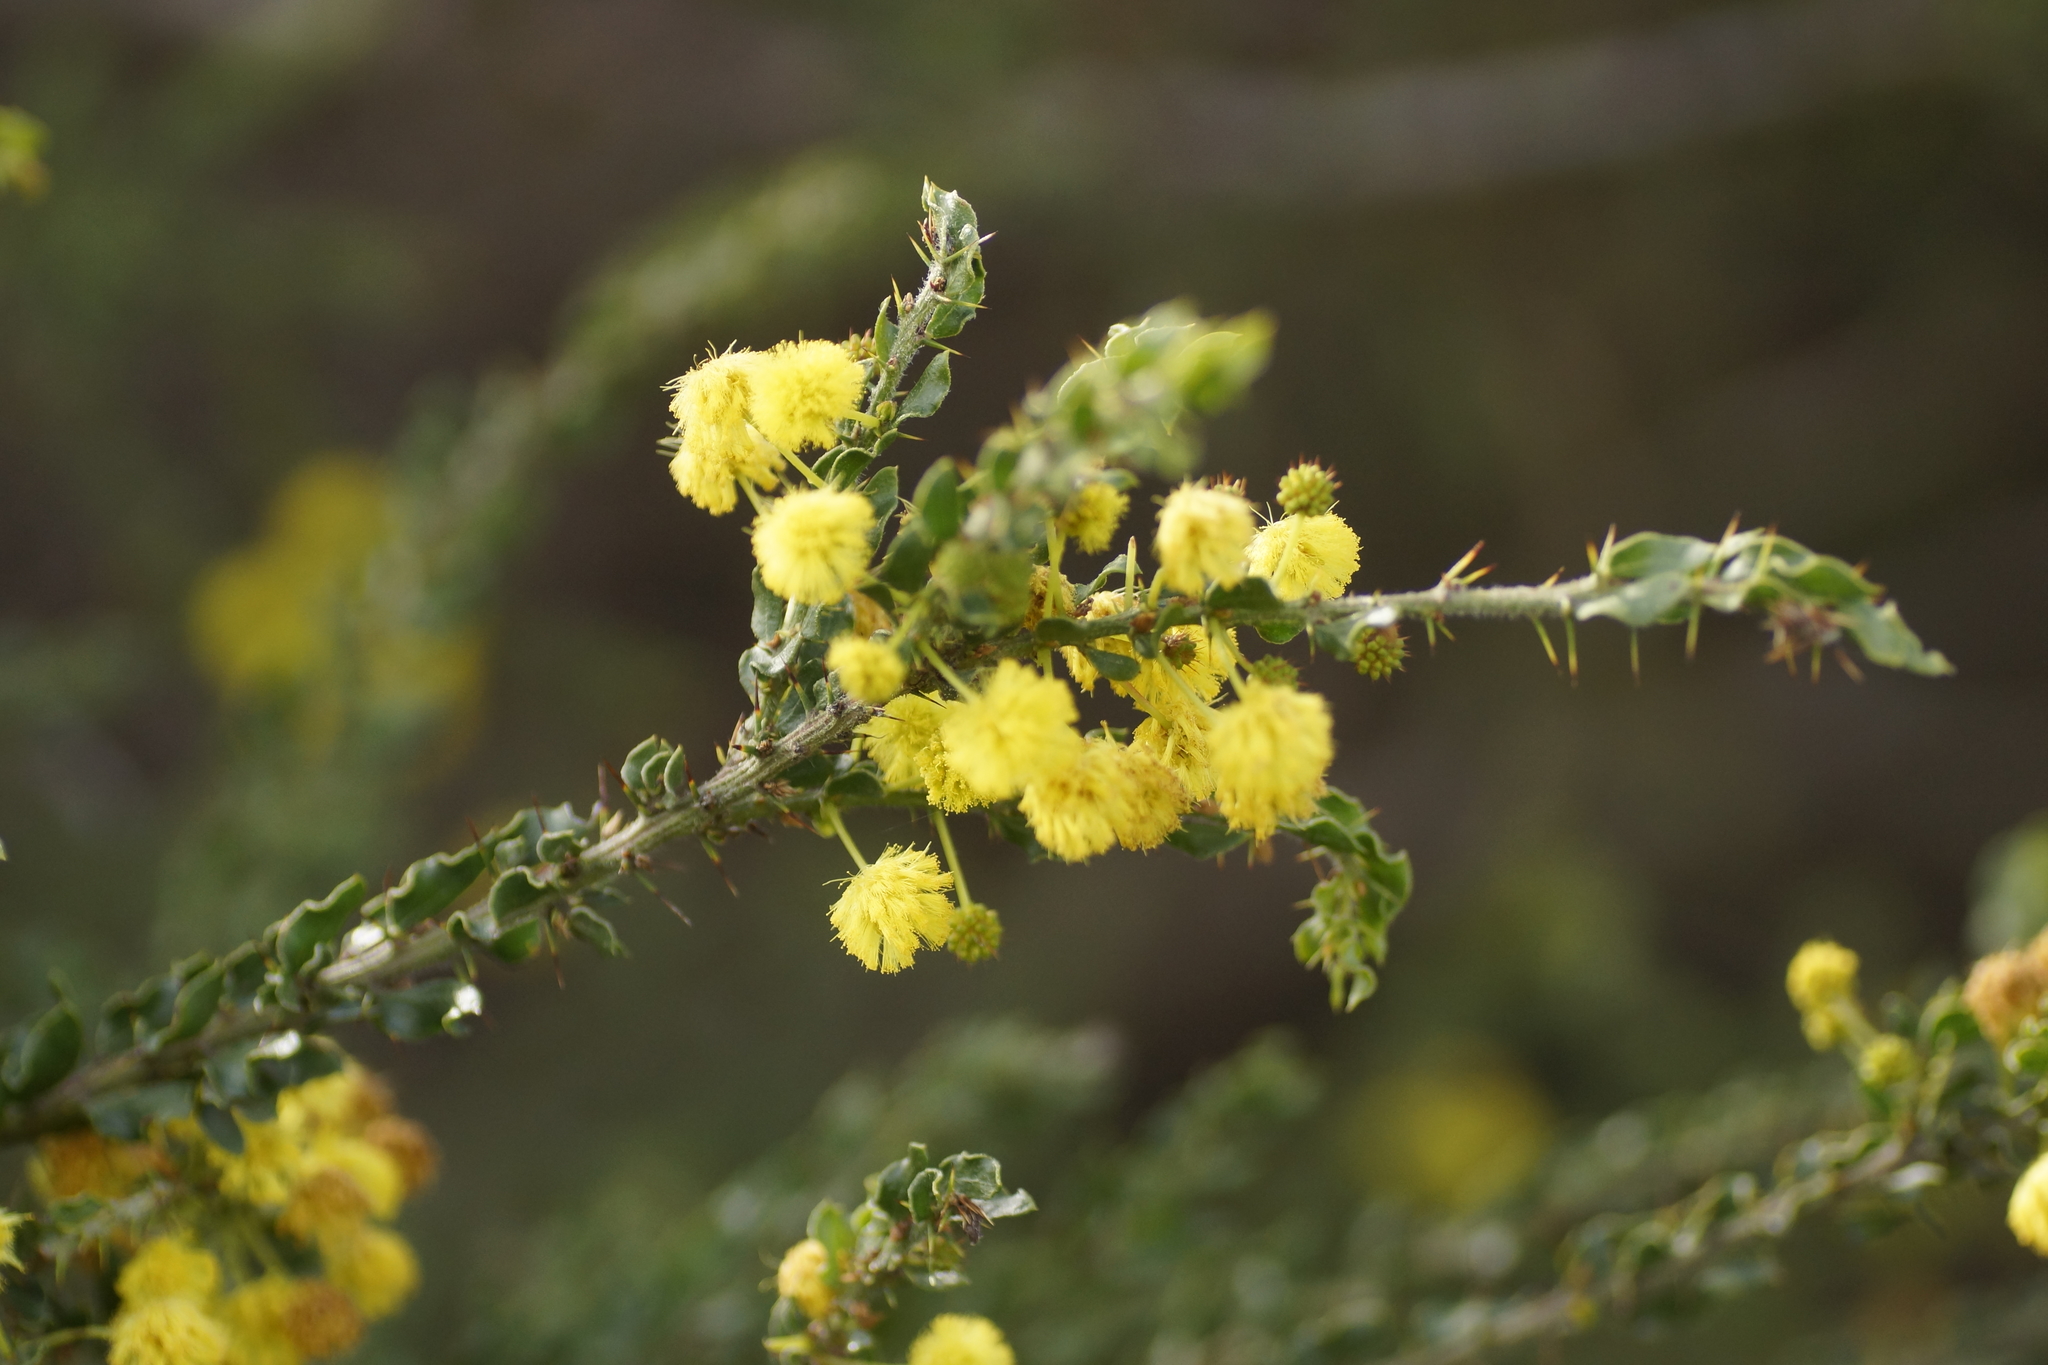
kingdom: Plantae
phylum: Tracheophyta
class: Magnoliopsida
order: Fabales
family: Fabaceae
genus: Acacia
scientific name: Acacia paradoxa
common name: Paradox acacia
